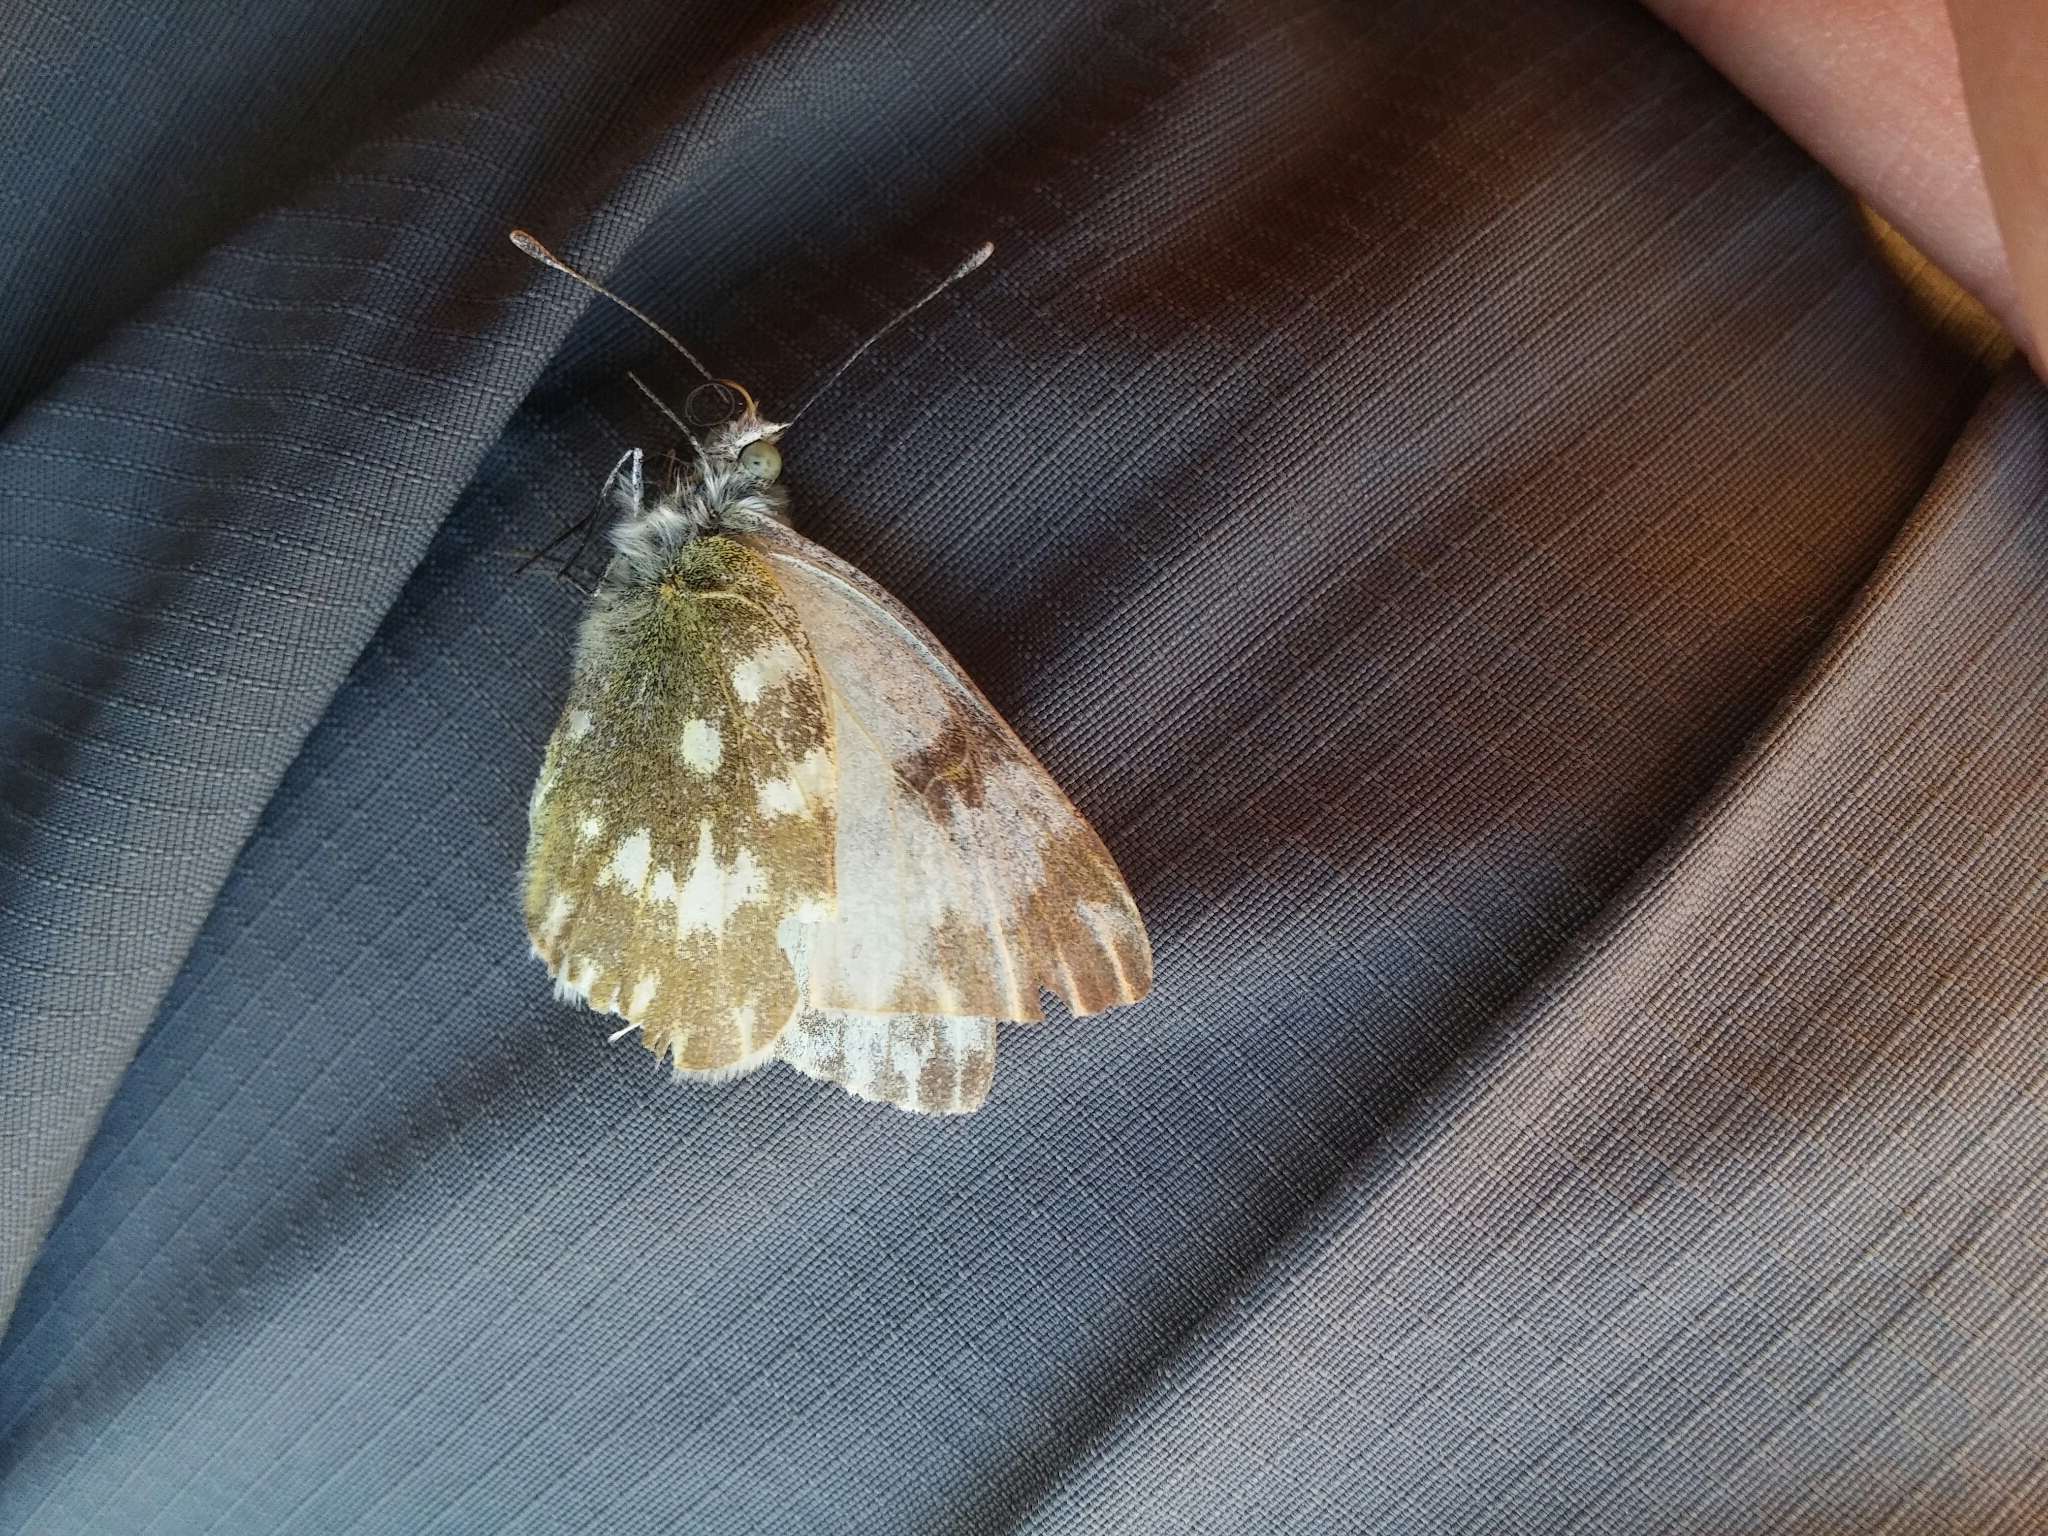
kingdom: Animalia
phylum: Arthropoda
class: Insecta
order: Lepidoptera
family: Pieridae
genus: Pontia
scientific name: Pontia daplidice
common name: Bath white
